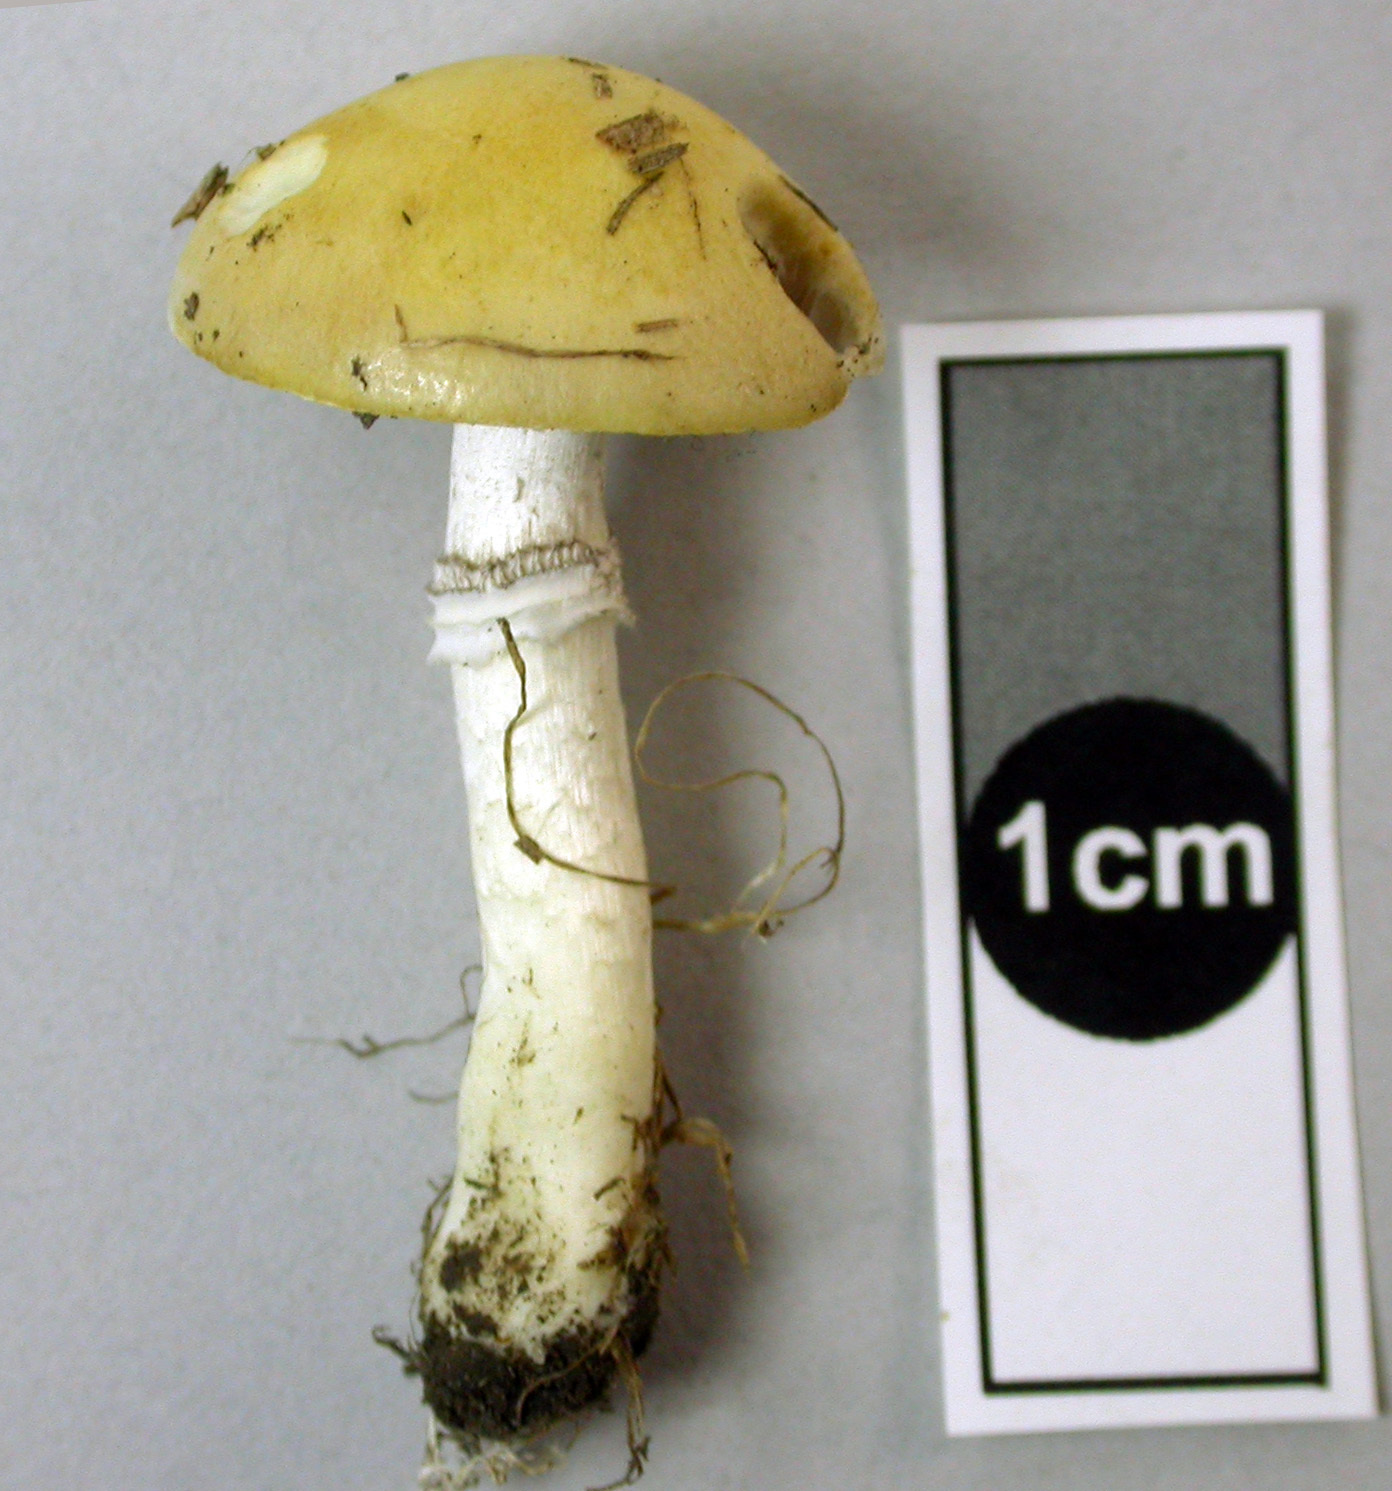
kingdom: Fungi
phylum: Basidiomycota
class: Agaricomycetes
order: Agaricales
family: Hymenogastraceae
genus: Psilocybe
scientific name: Psilocybe coronilla
